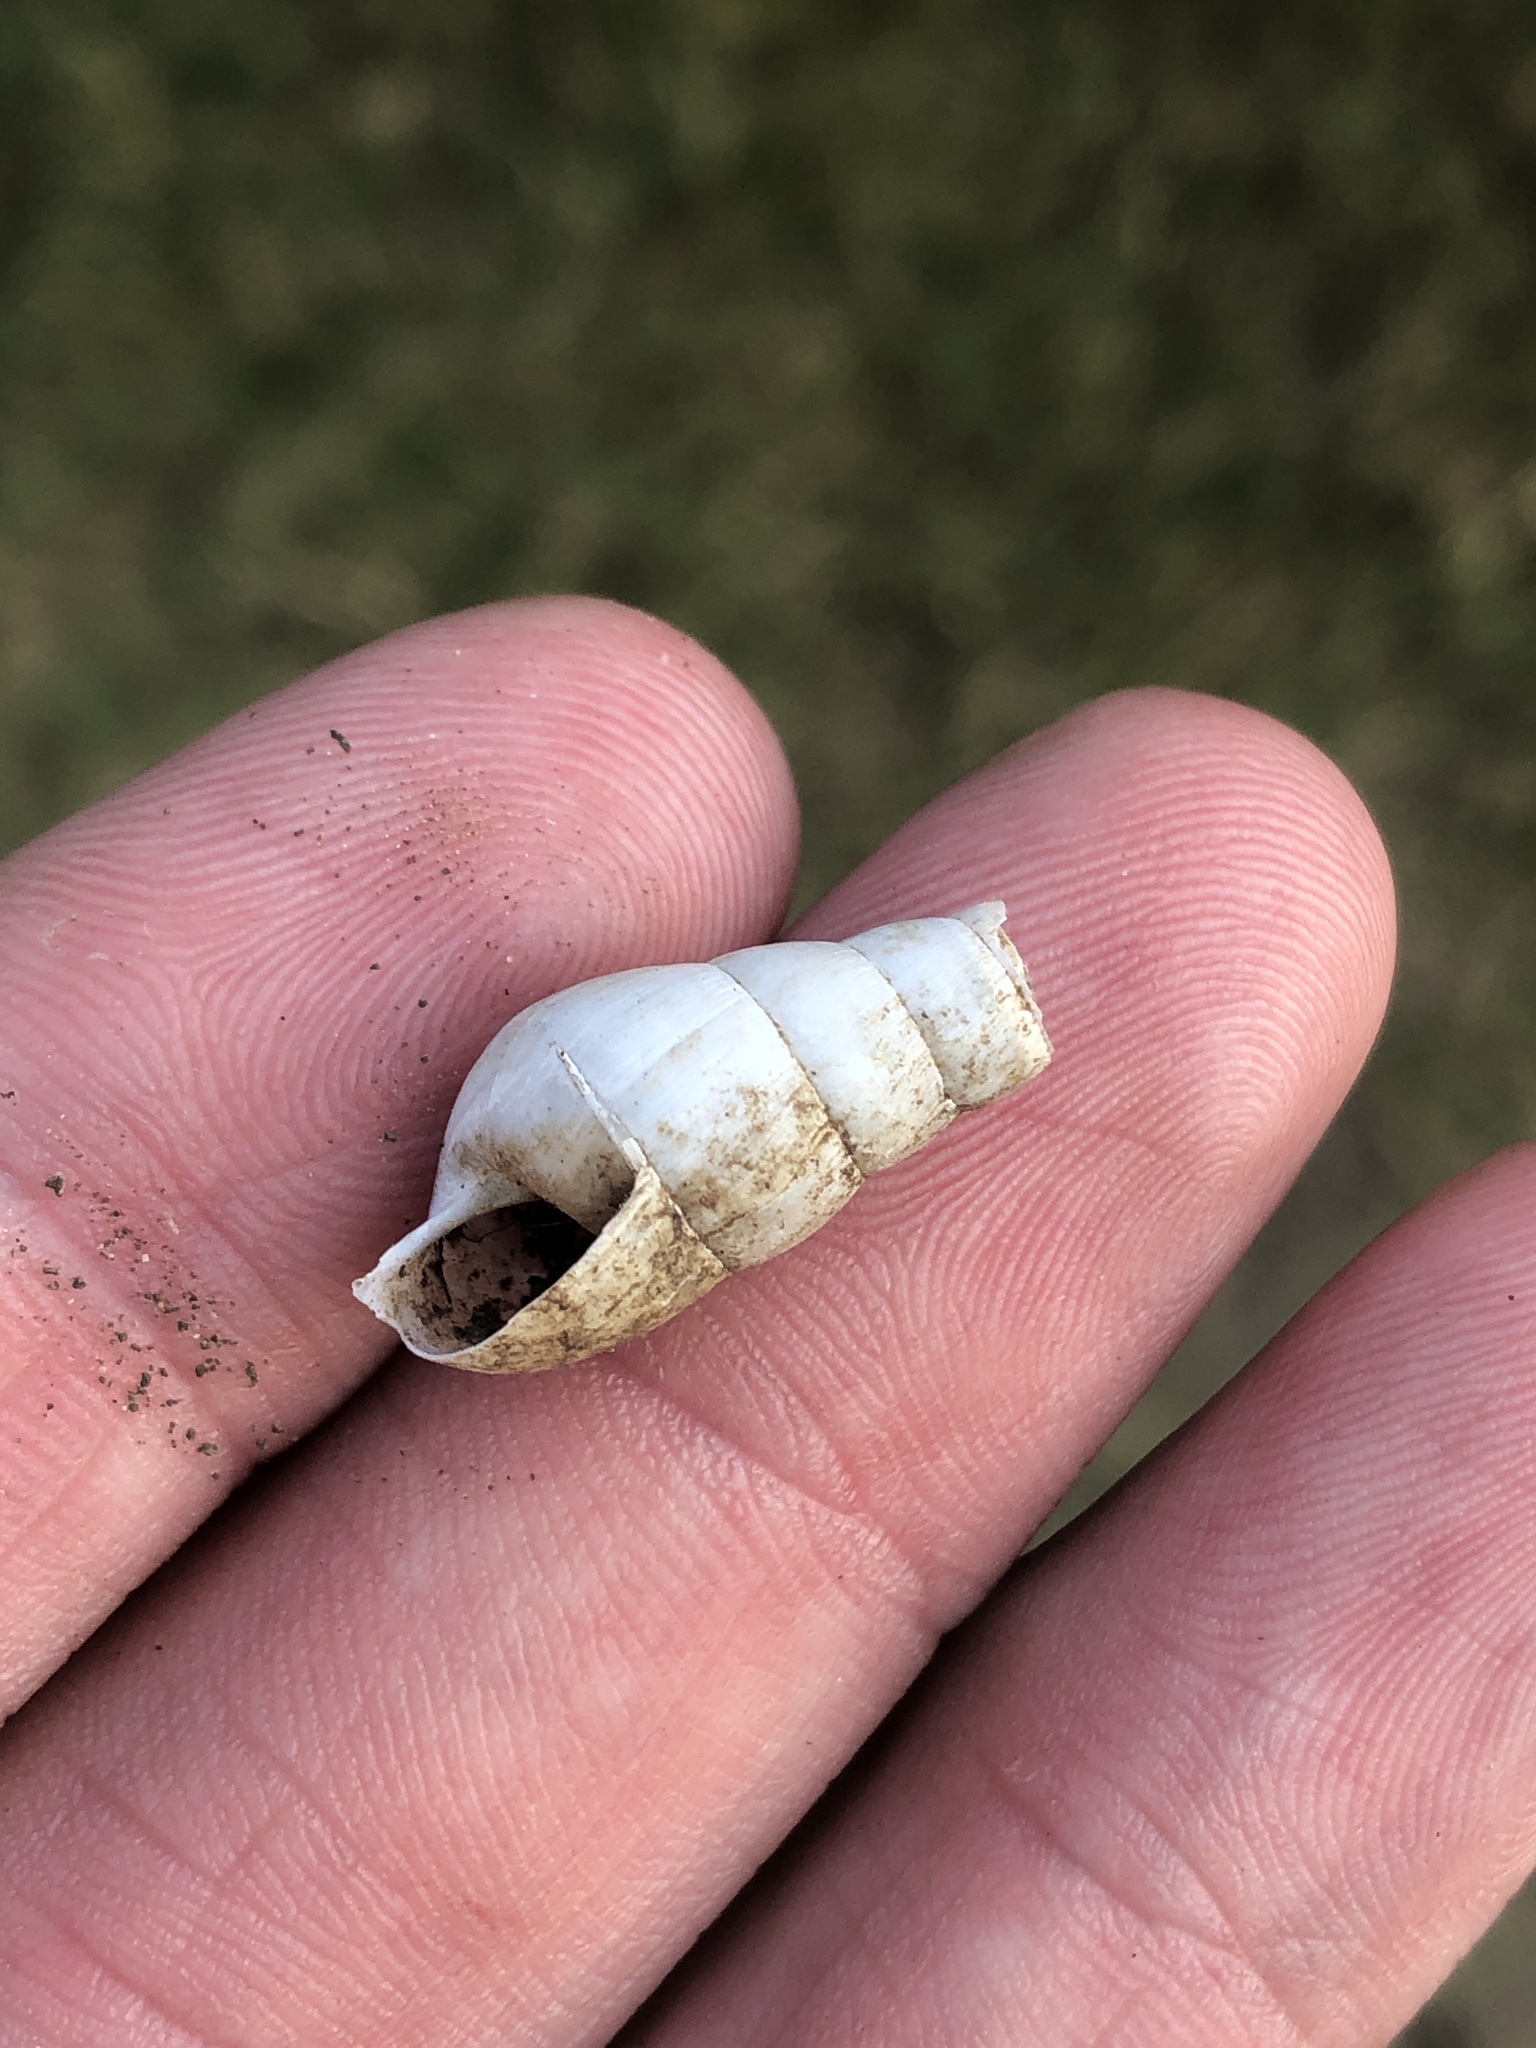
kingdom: Animalia
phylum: Mollusca
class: Gastropoda
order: Stylommatophora
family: Achatinidae
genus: Rumina
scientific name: Rumina decollata
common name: Decollate snail
